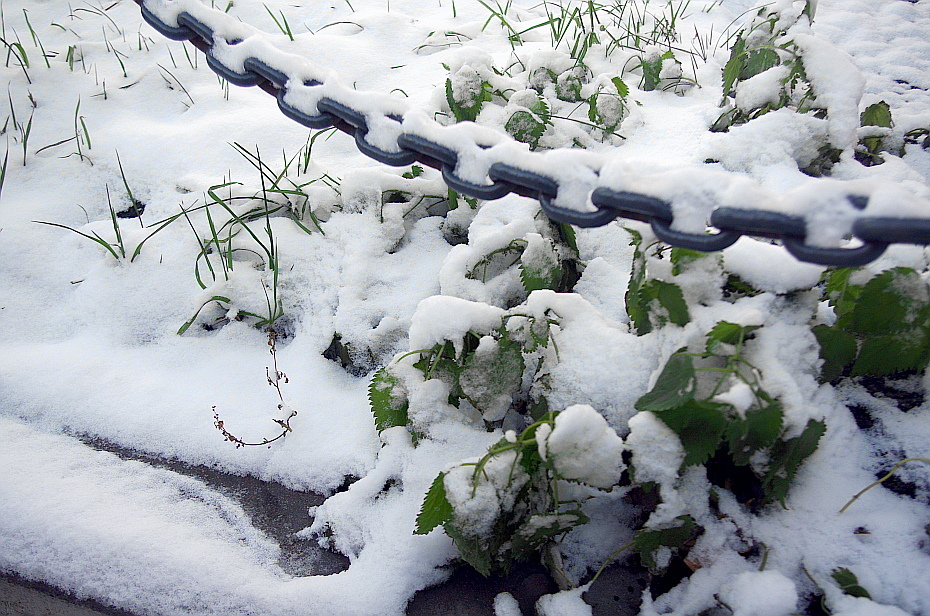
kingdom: Plantae
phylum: Tracheophyta
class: Magnoliopsida
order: Rosales
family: Urticaceae
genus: Urtica
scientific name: Urtica dioica
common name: Common nettle
